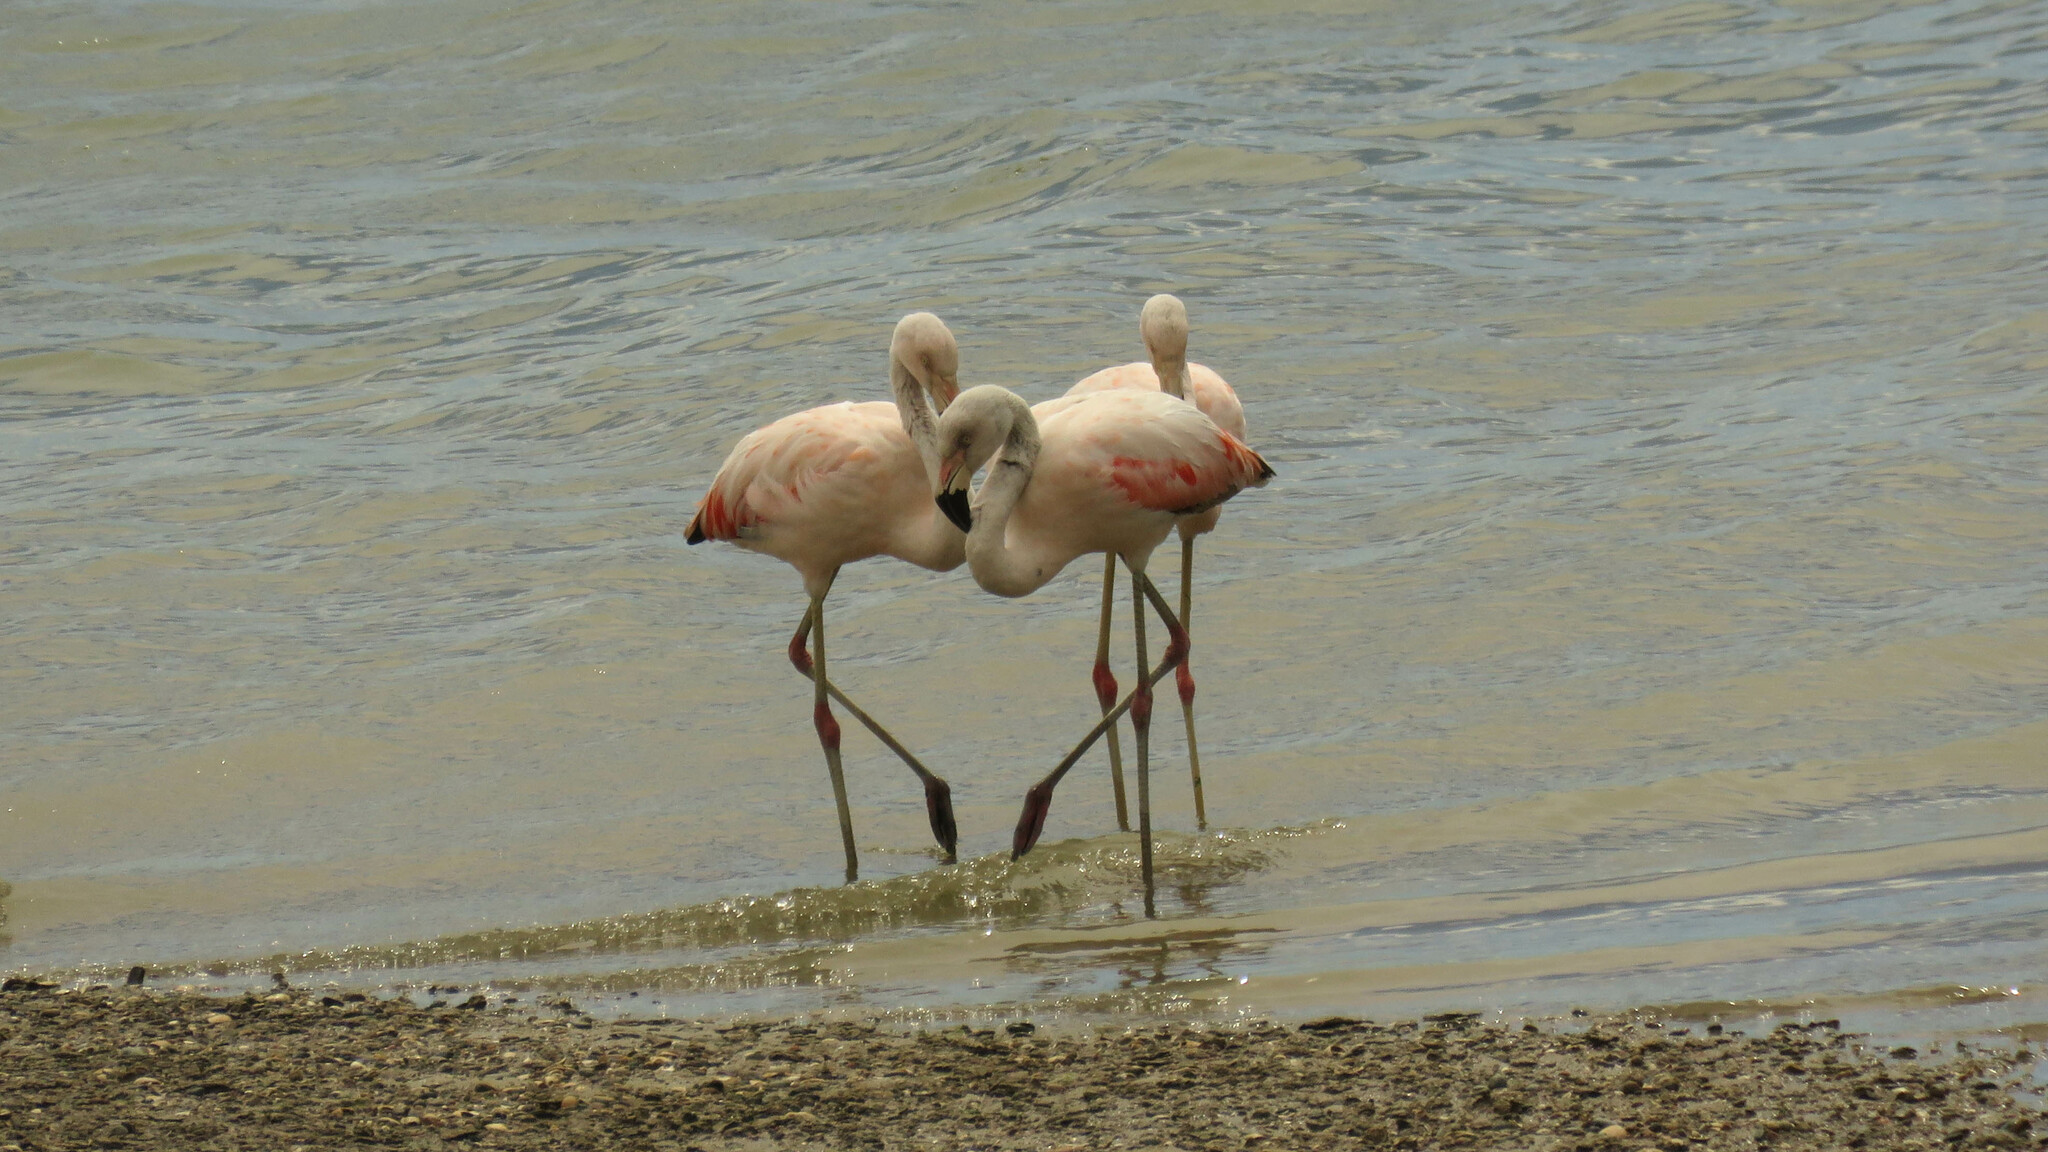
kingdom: Animalia
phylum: Chordata
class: Aves
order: Phoenicopteriformes
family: Phoenicopteridae
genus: Phoenicopterus
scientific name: Phoenicopterus chilensis
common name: Chilean flamingo
